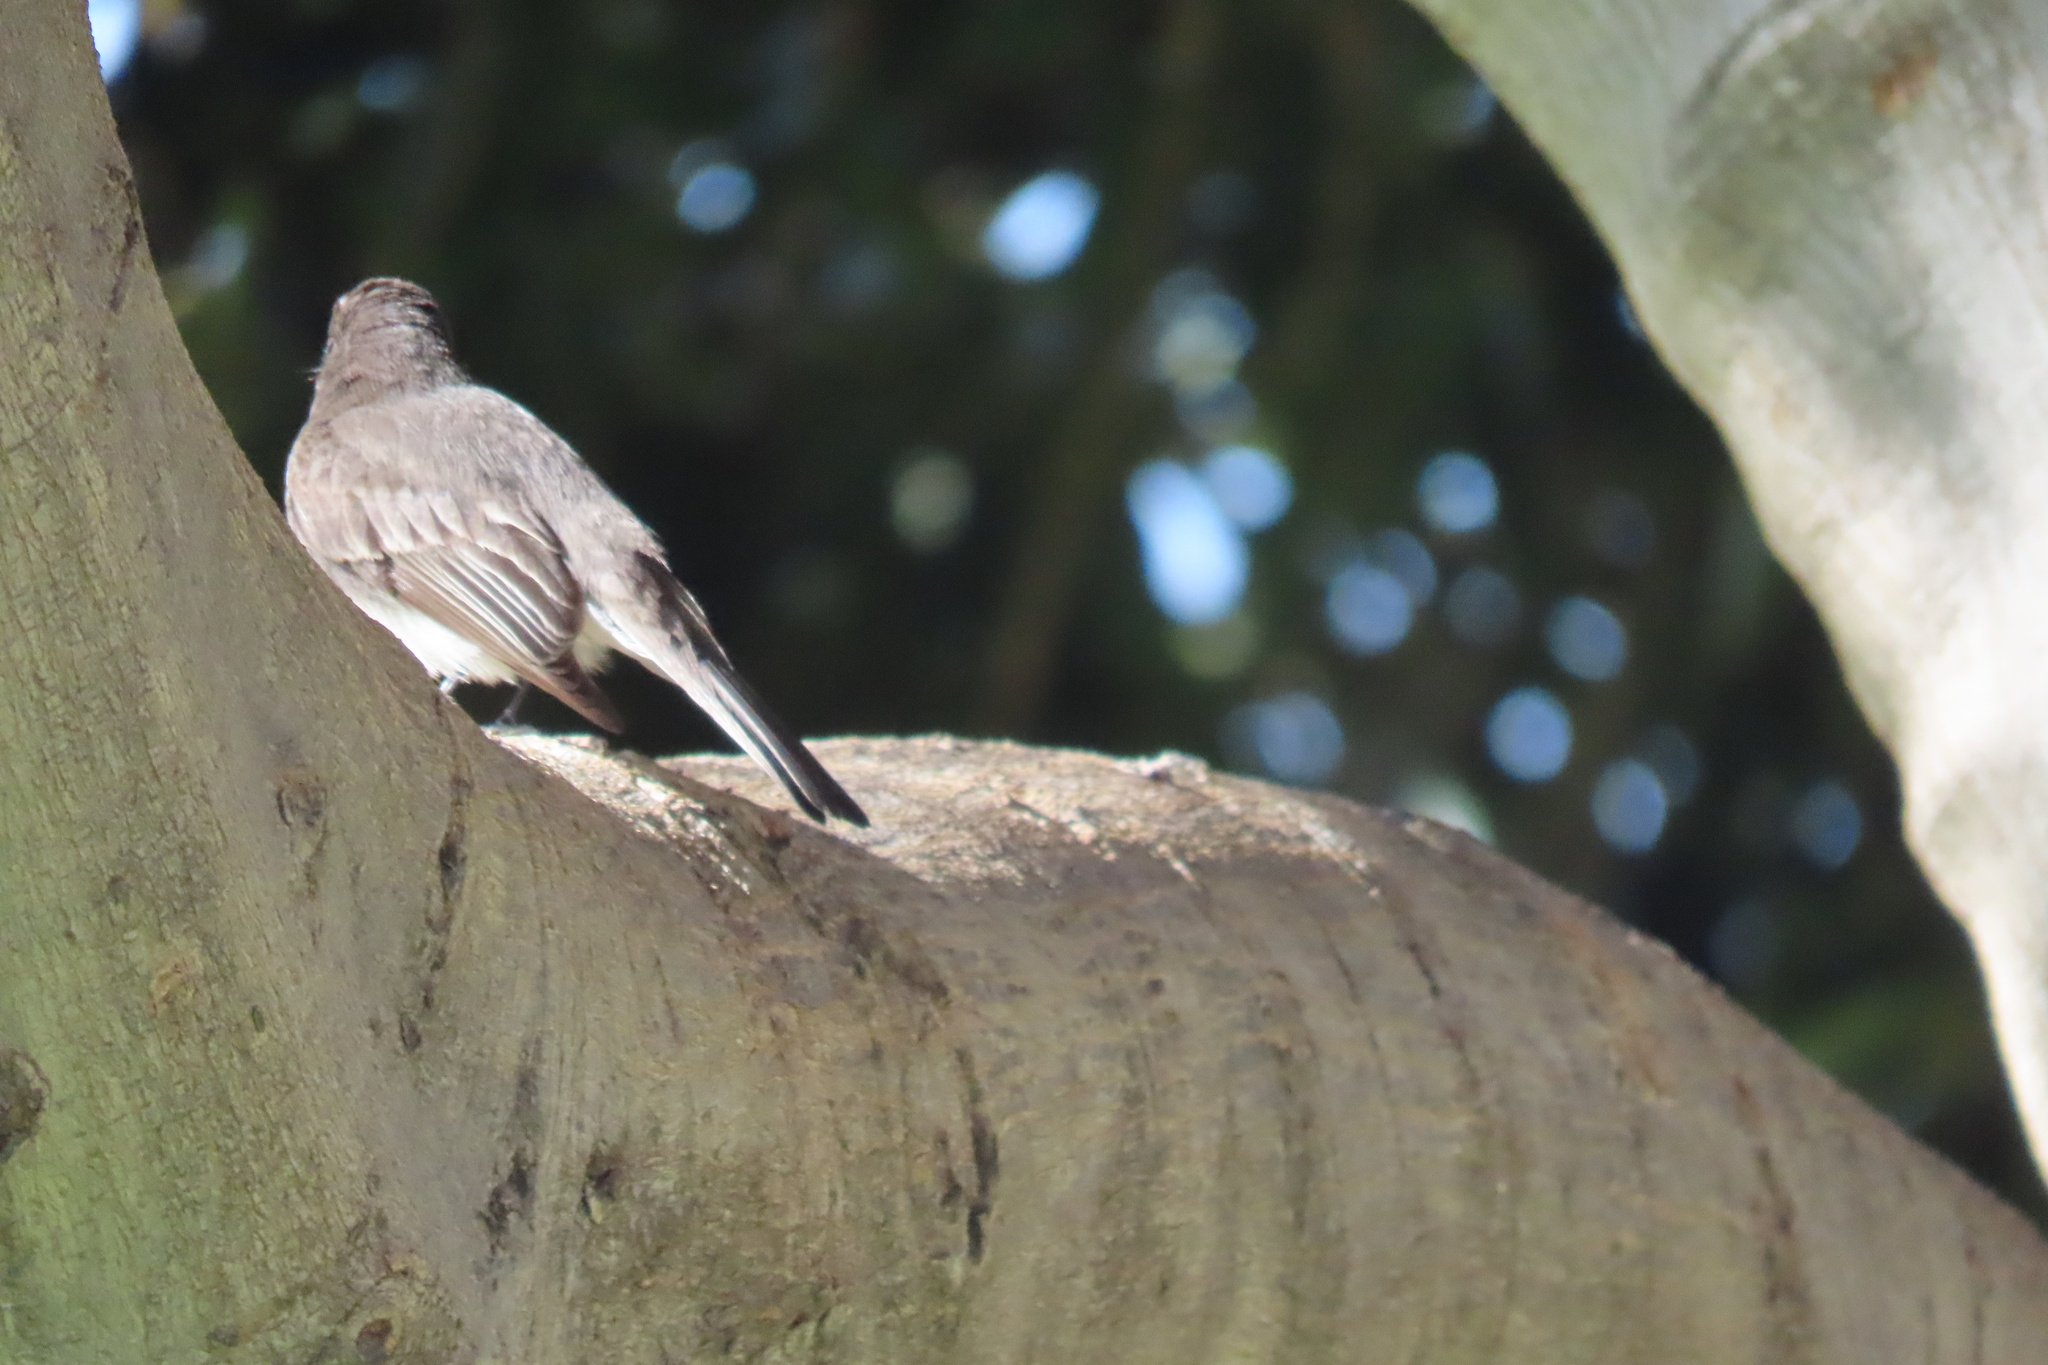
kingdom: Animalia
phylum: Chordata
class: Aves
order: Passeriformes
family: Tyrannidae
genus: Sayornis
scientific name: Sayornis nigricans
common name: Black phoebe
